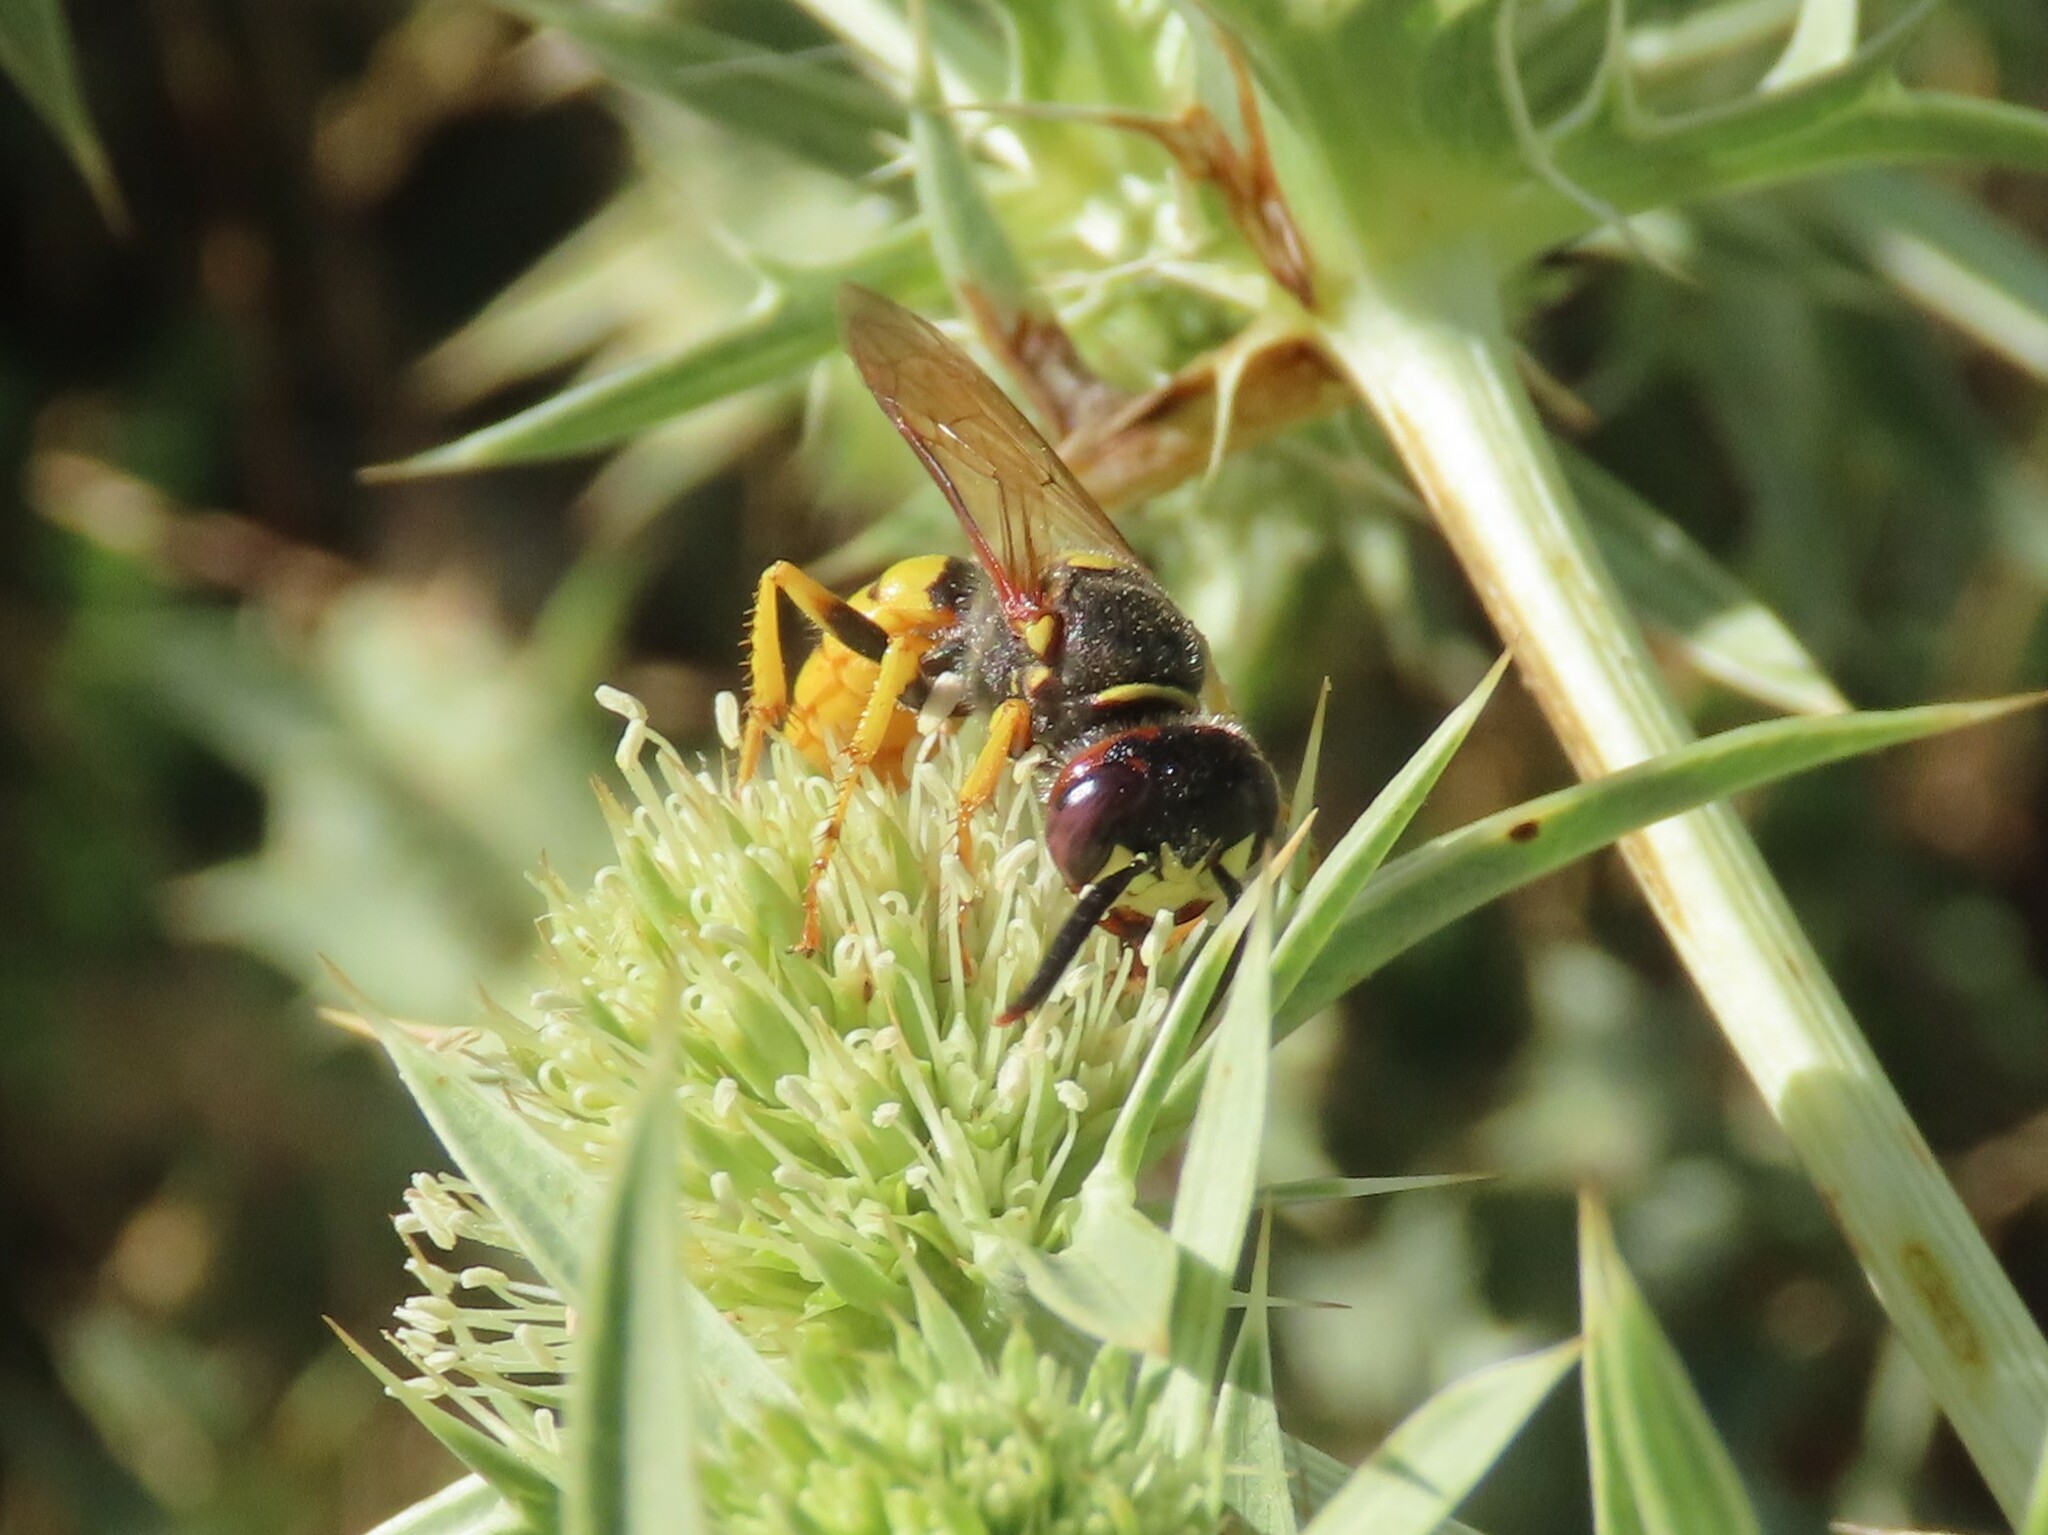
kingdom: Animalia
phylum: Arthropoda
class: Insecta
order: Hymenoptera
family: Crabronidae
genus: Philanthus
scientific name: Philanthus triangulum
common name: Bee wolf
